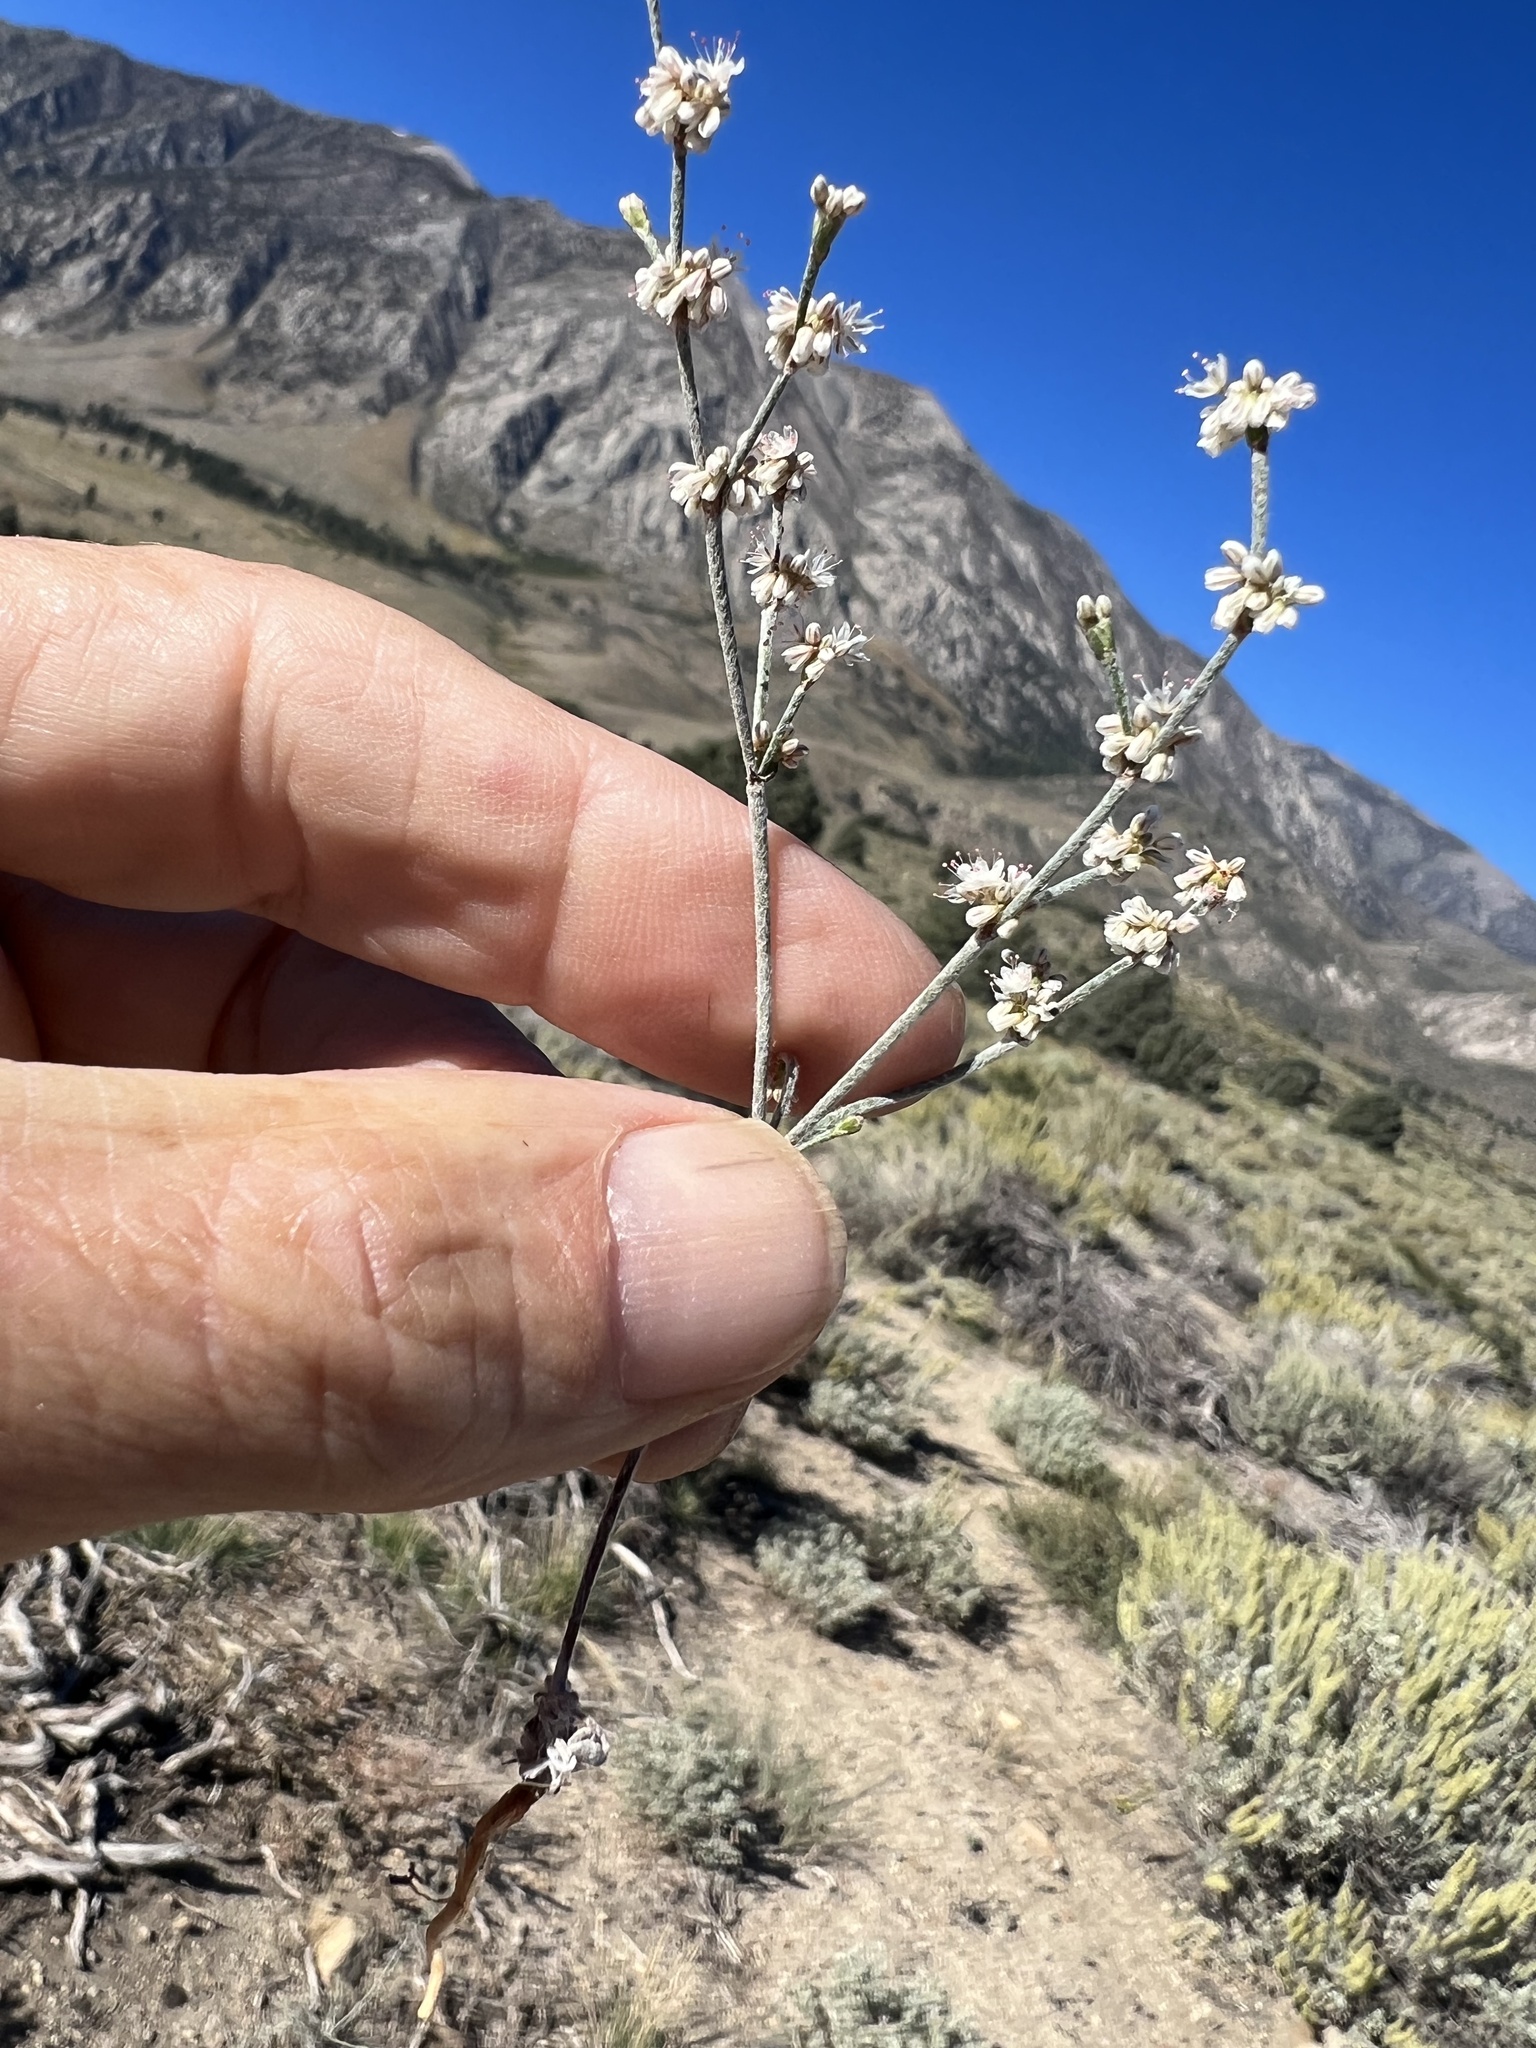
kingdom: Plantae
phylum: Tracheophyta
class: Magnoliopsida
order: Caryophyllales
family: Polygonaceae
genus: Eriogonum
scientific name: Eriogonum baileyi
